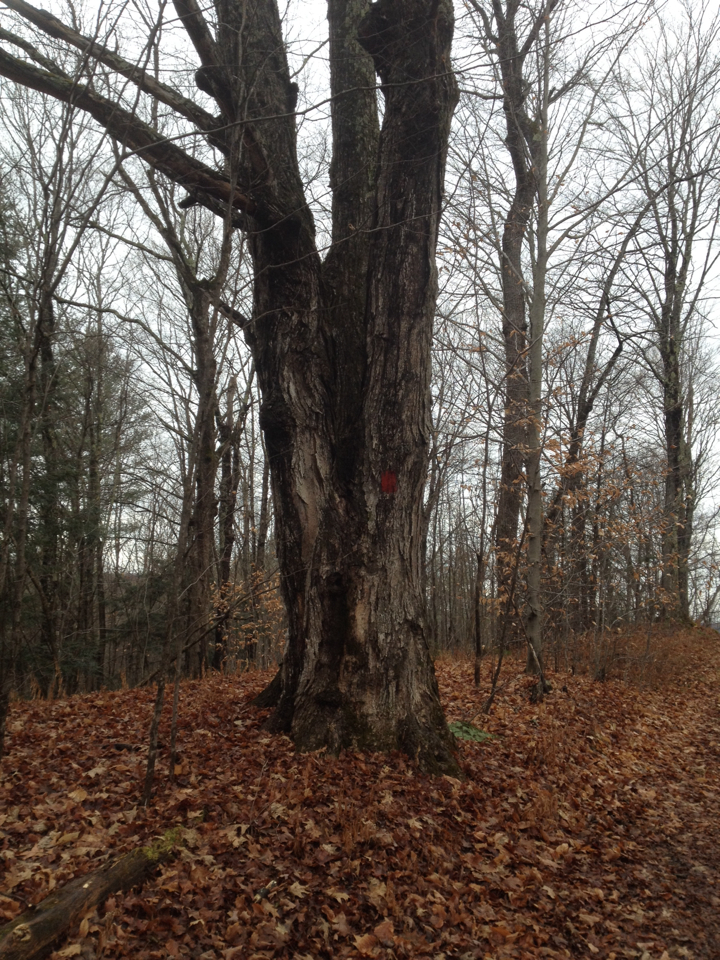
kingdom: Plantae
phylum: Tracheophyta
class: Magnoliopsida
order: Sapindales
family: Sapindaceae
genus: Acer
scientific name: Acer saccharum
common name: Sugar maple
